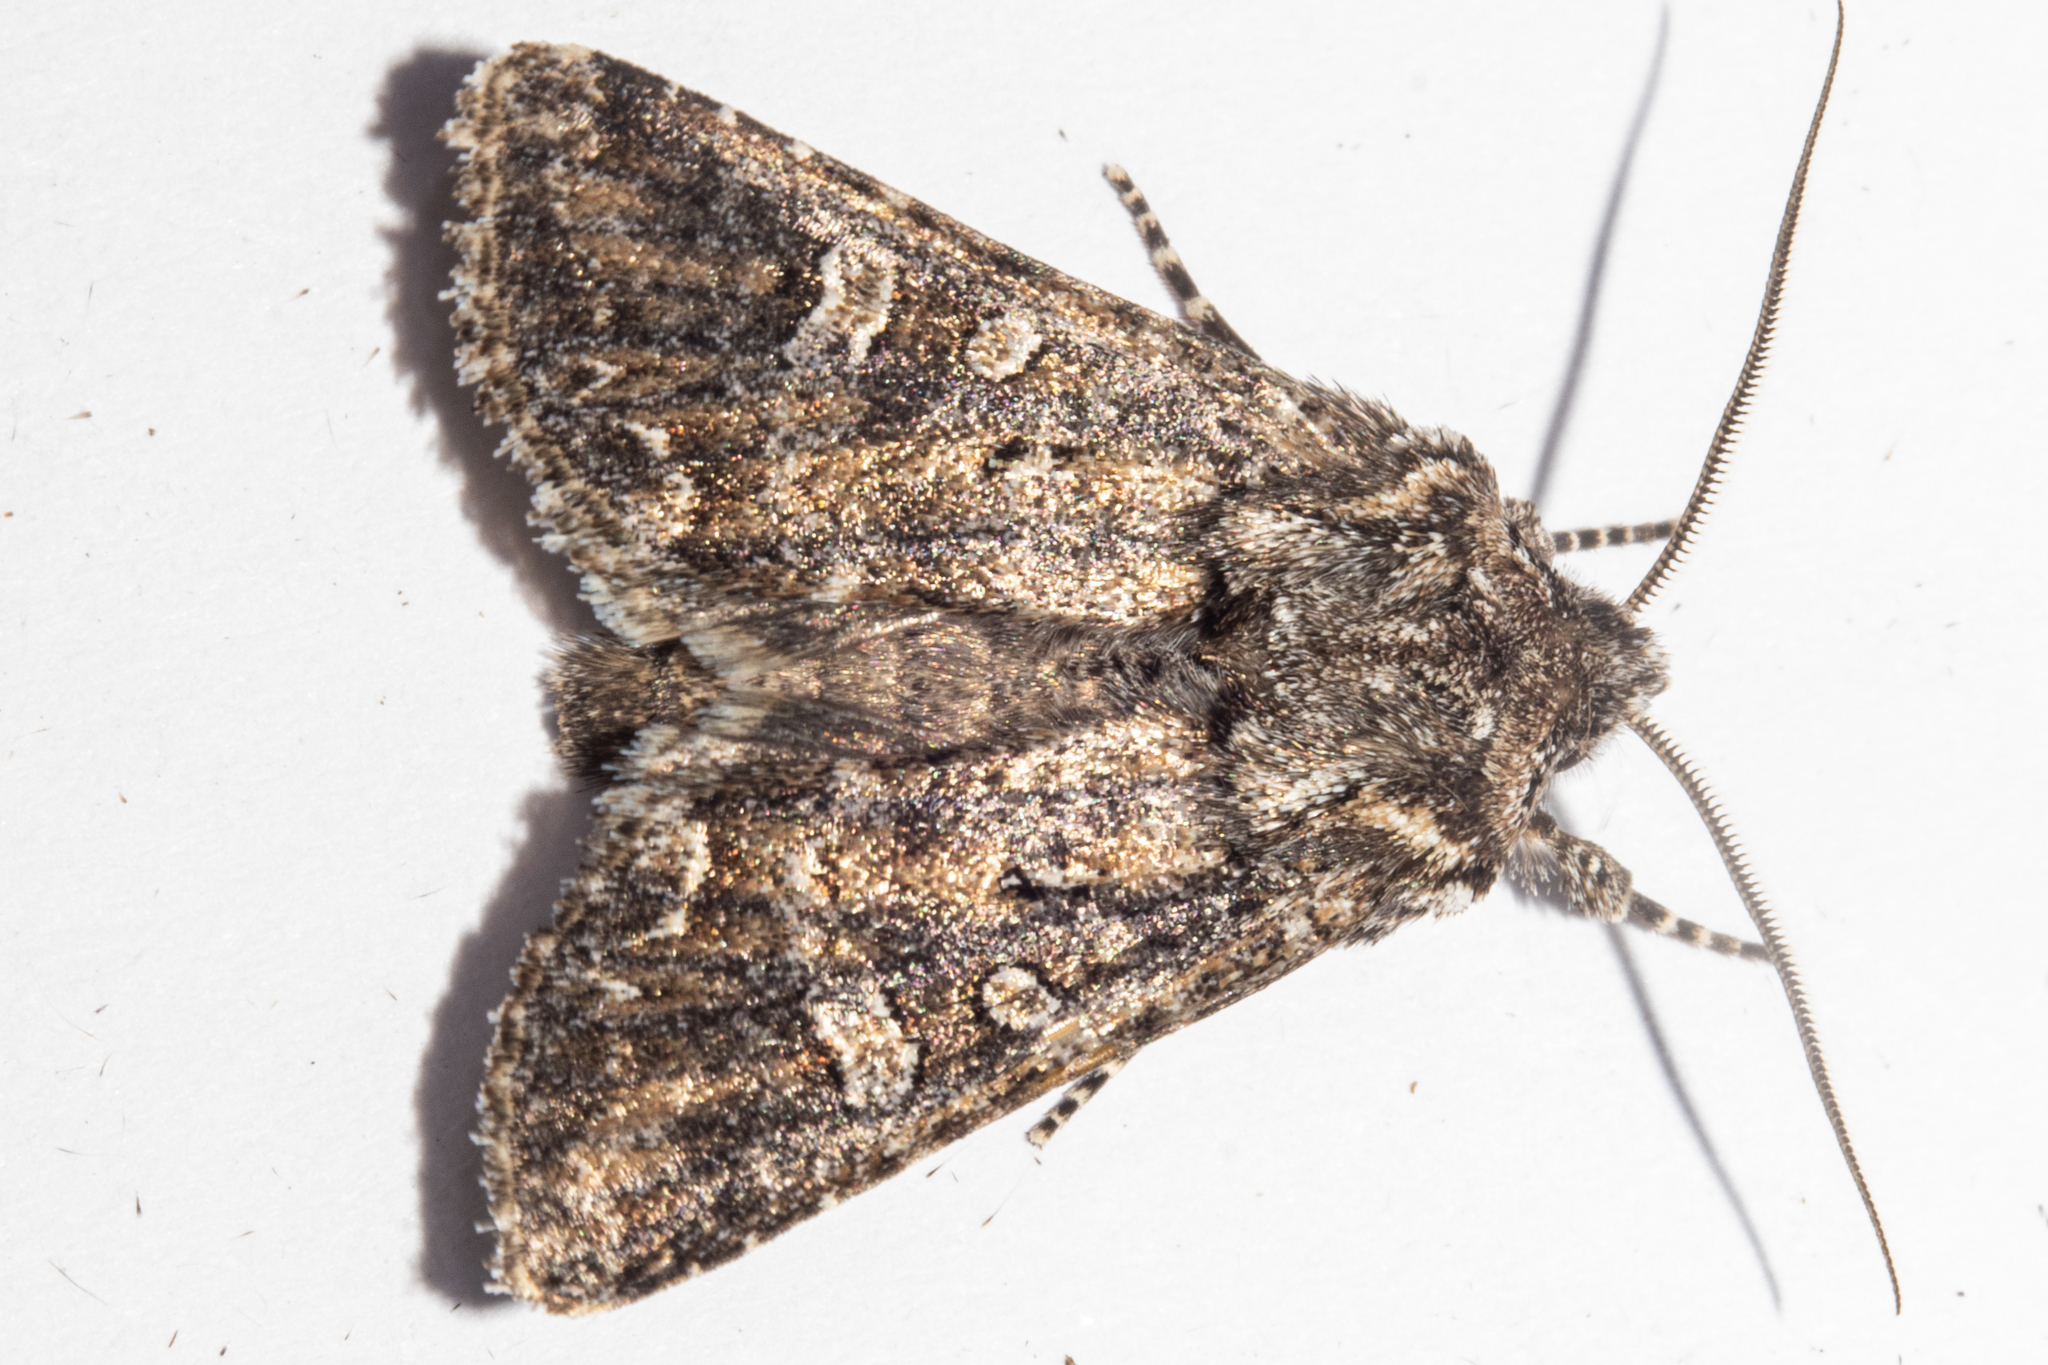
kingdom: Animalia
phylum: Arthropoda
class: Insecta
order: Lepidoptera
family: Noctuidae
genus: Ichneutica
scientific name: Ichneutica lithias
